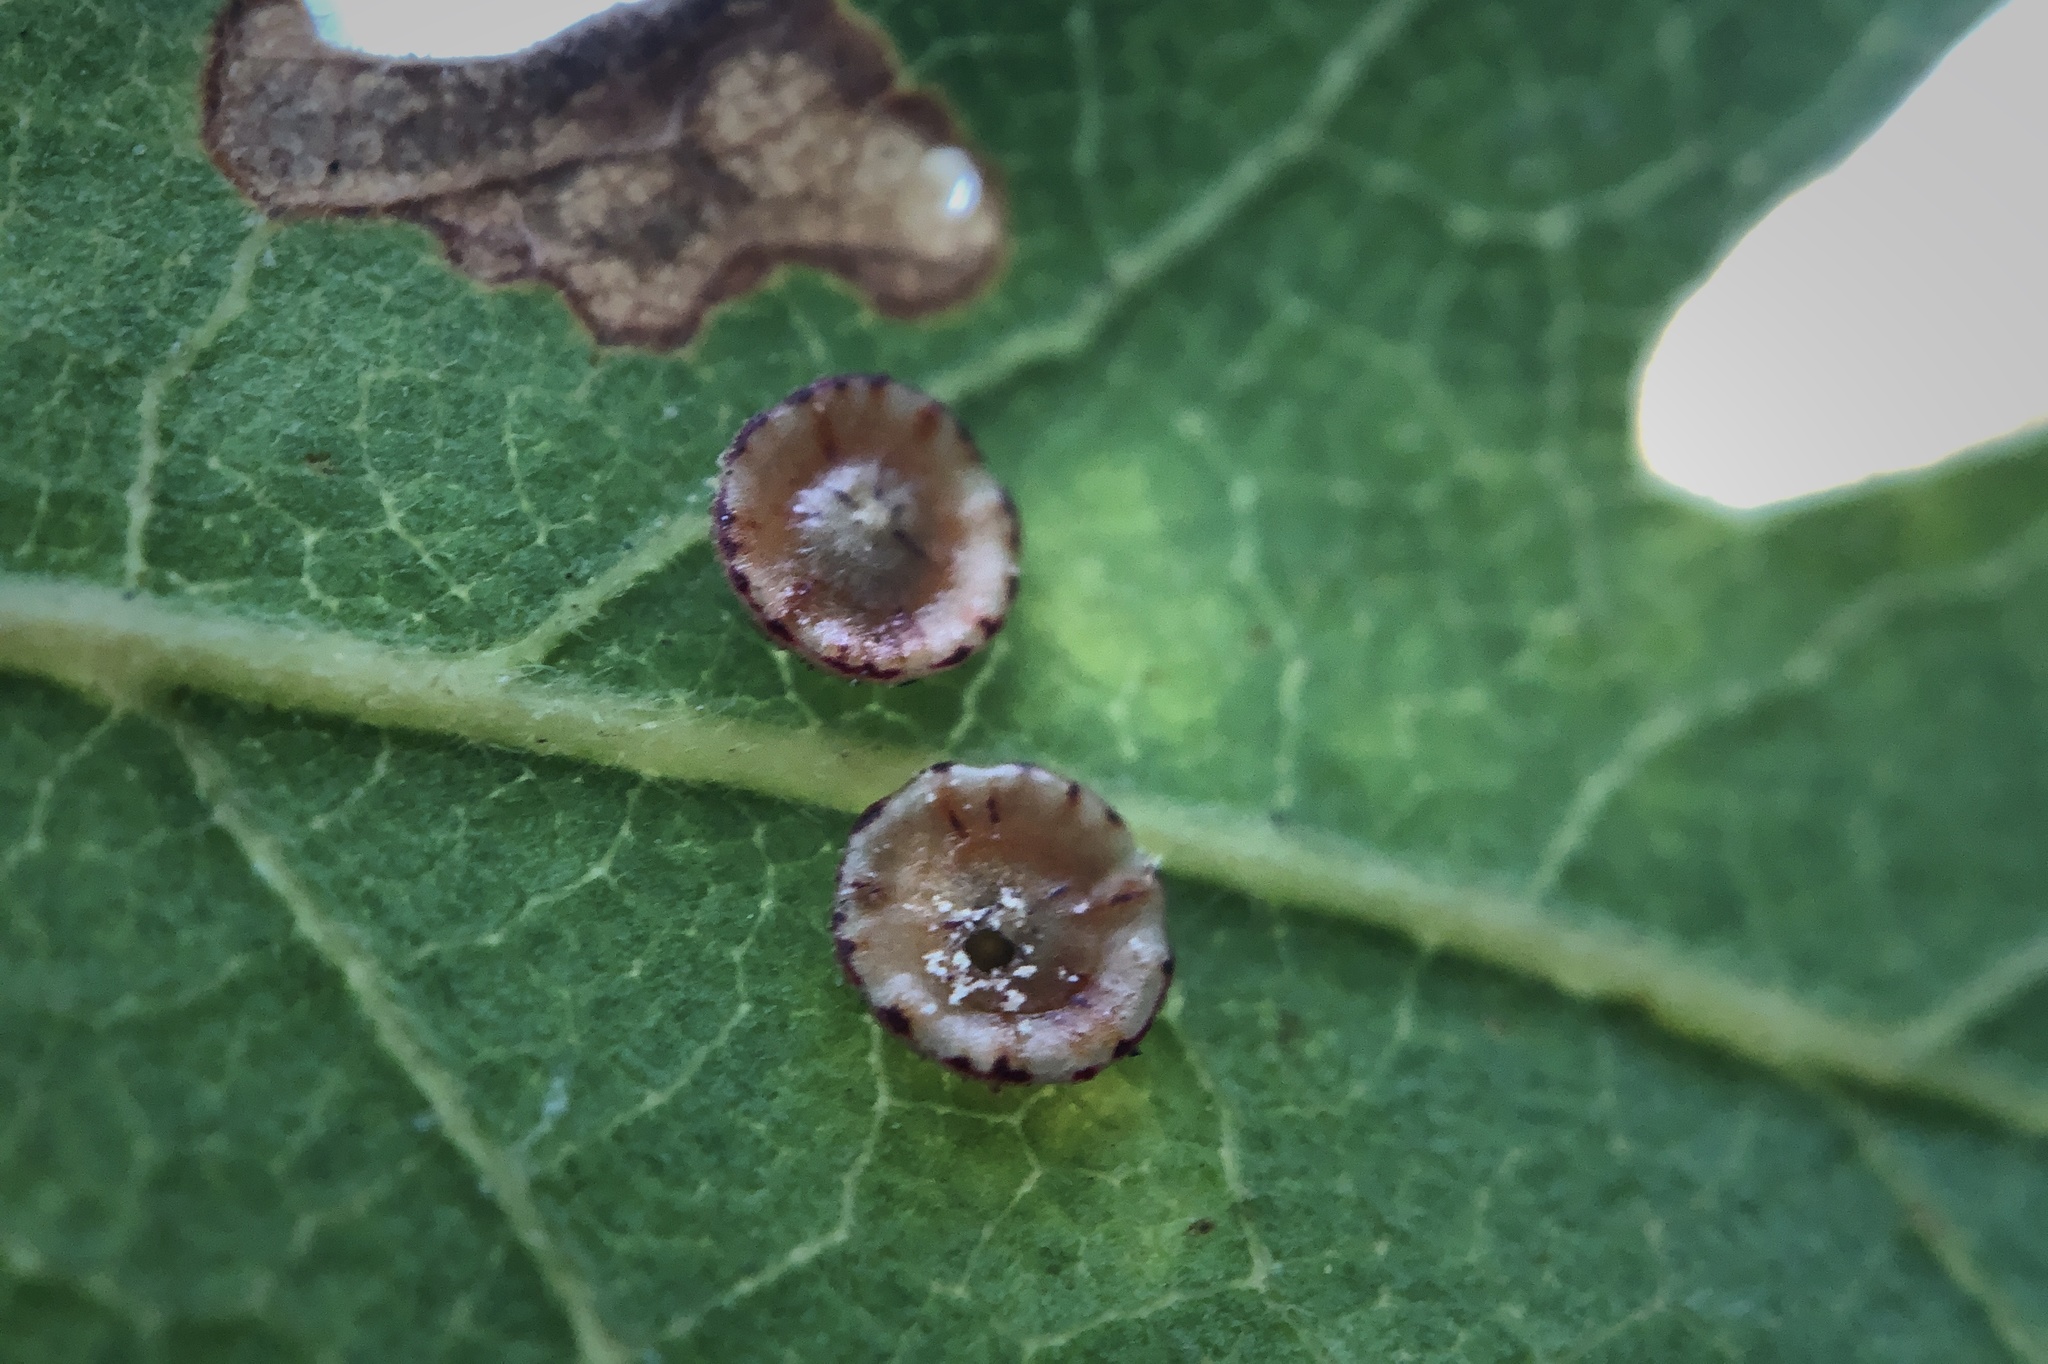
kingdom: Animalia
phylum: Arthropoda
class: Insecta
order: Hymenoptera
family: Cynipidae
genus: Andricus
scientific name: Andricus
